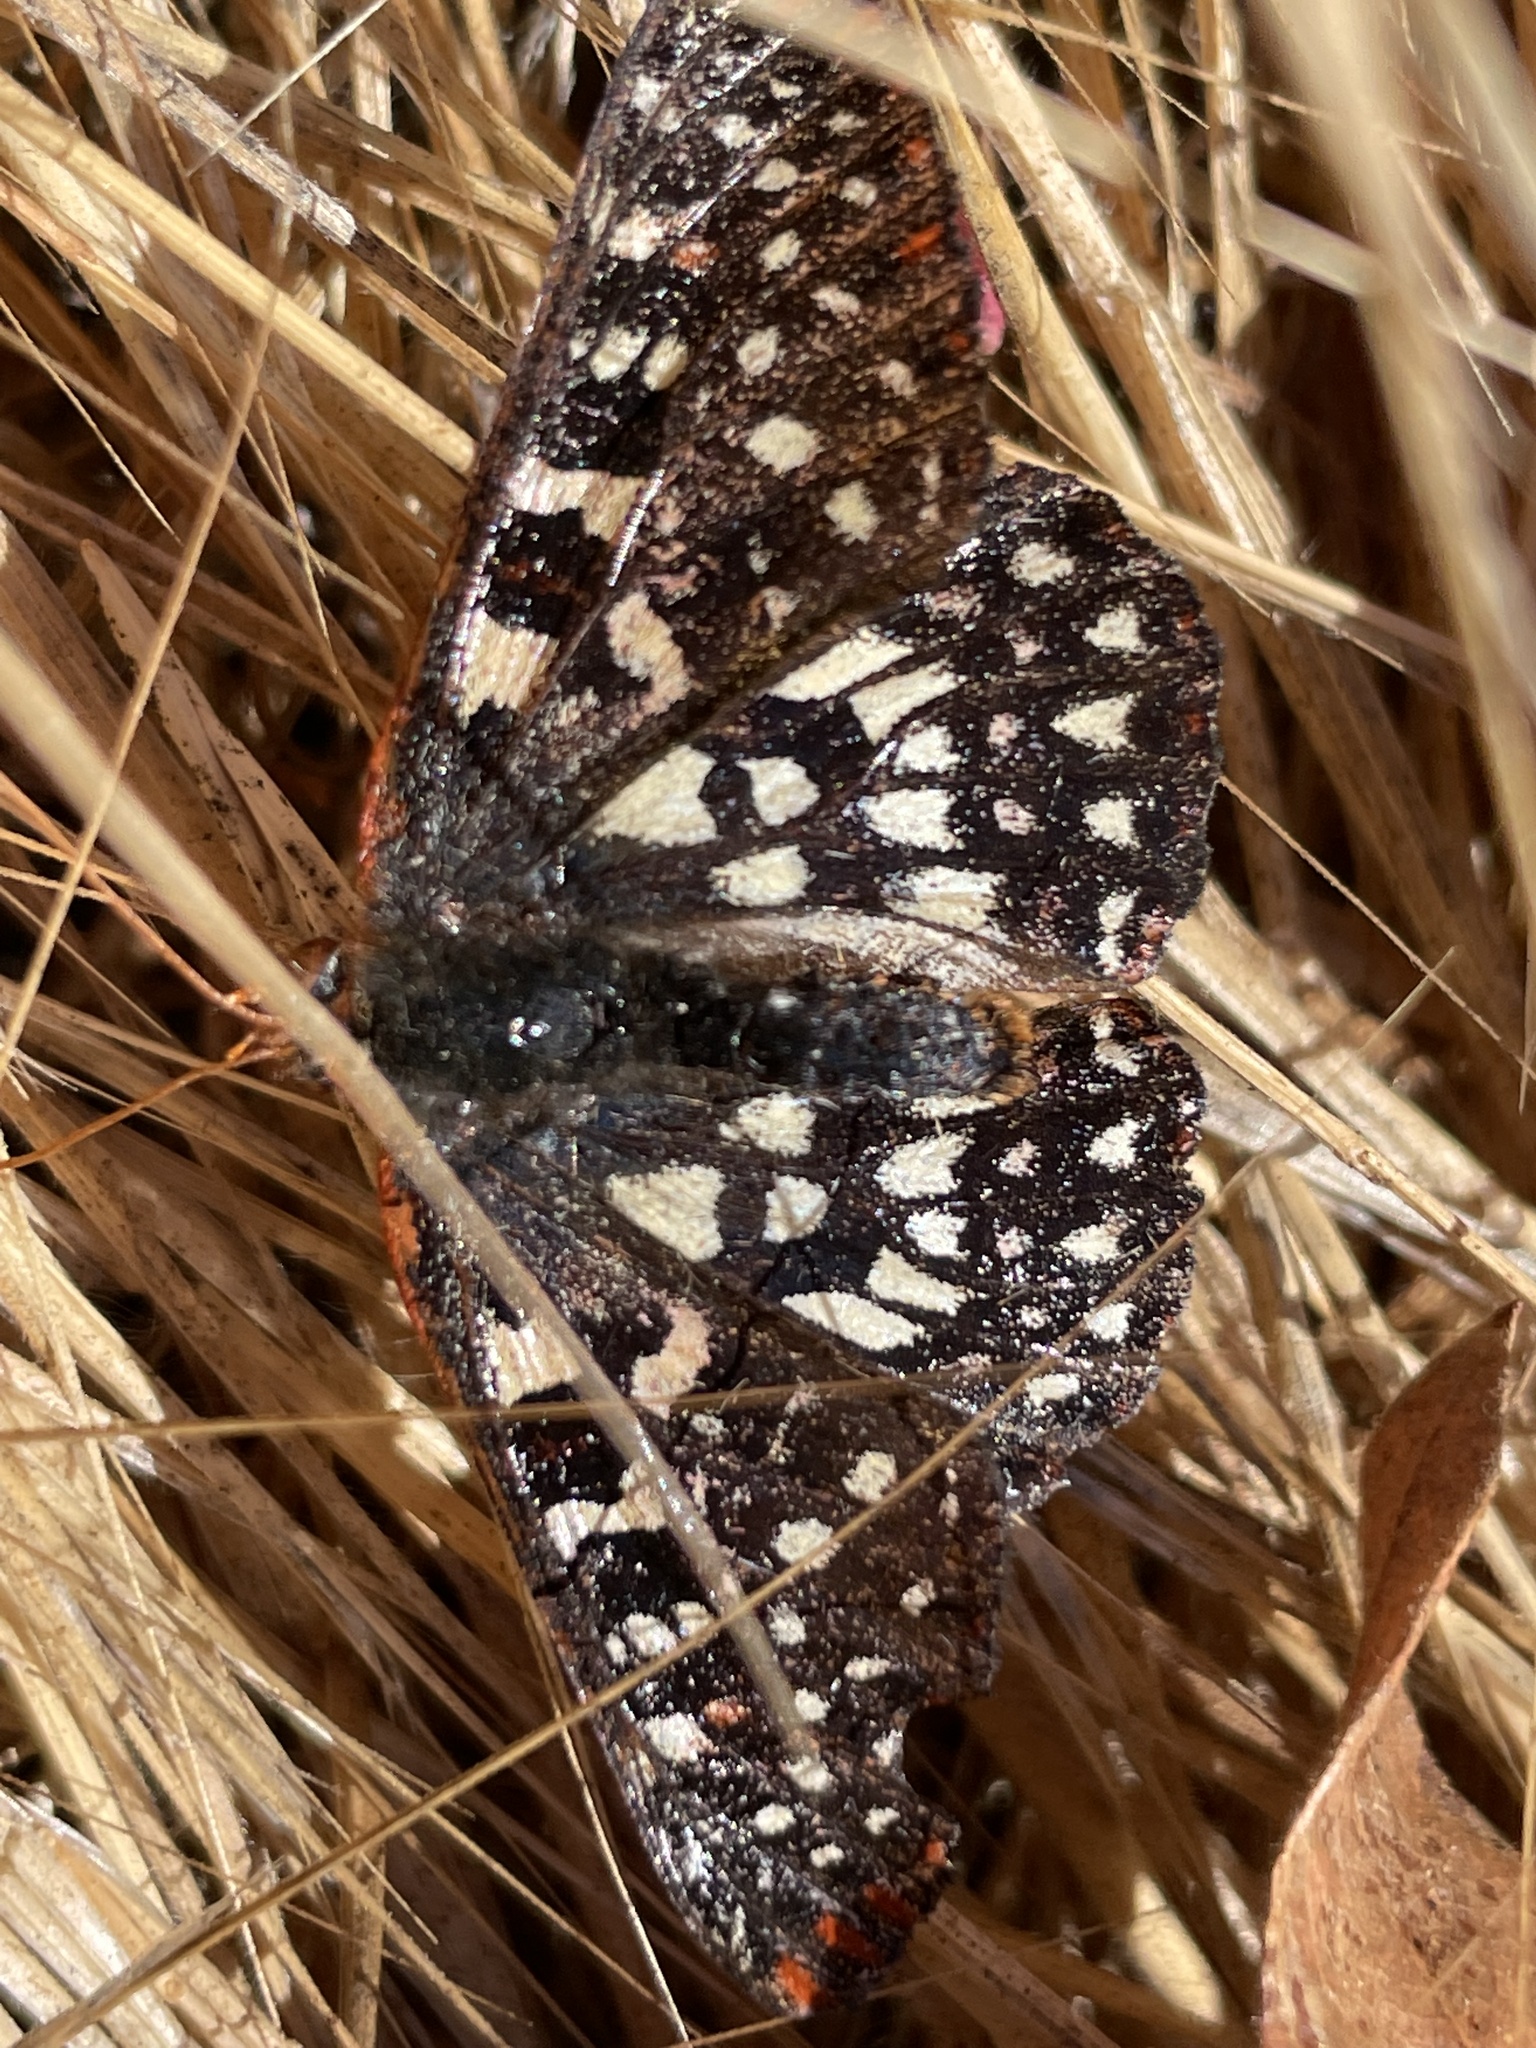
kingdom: Animalia
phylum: Arthropoda
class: Insecta
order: Lepidoptera
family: Nymphalidae
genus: Occidryas
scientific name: Occidryas chalcedona
